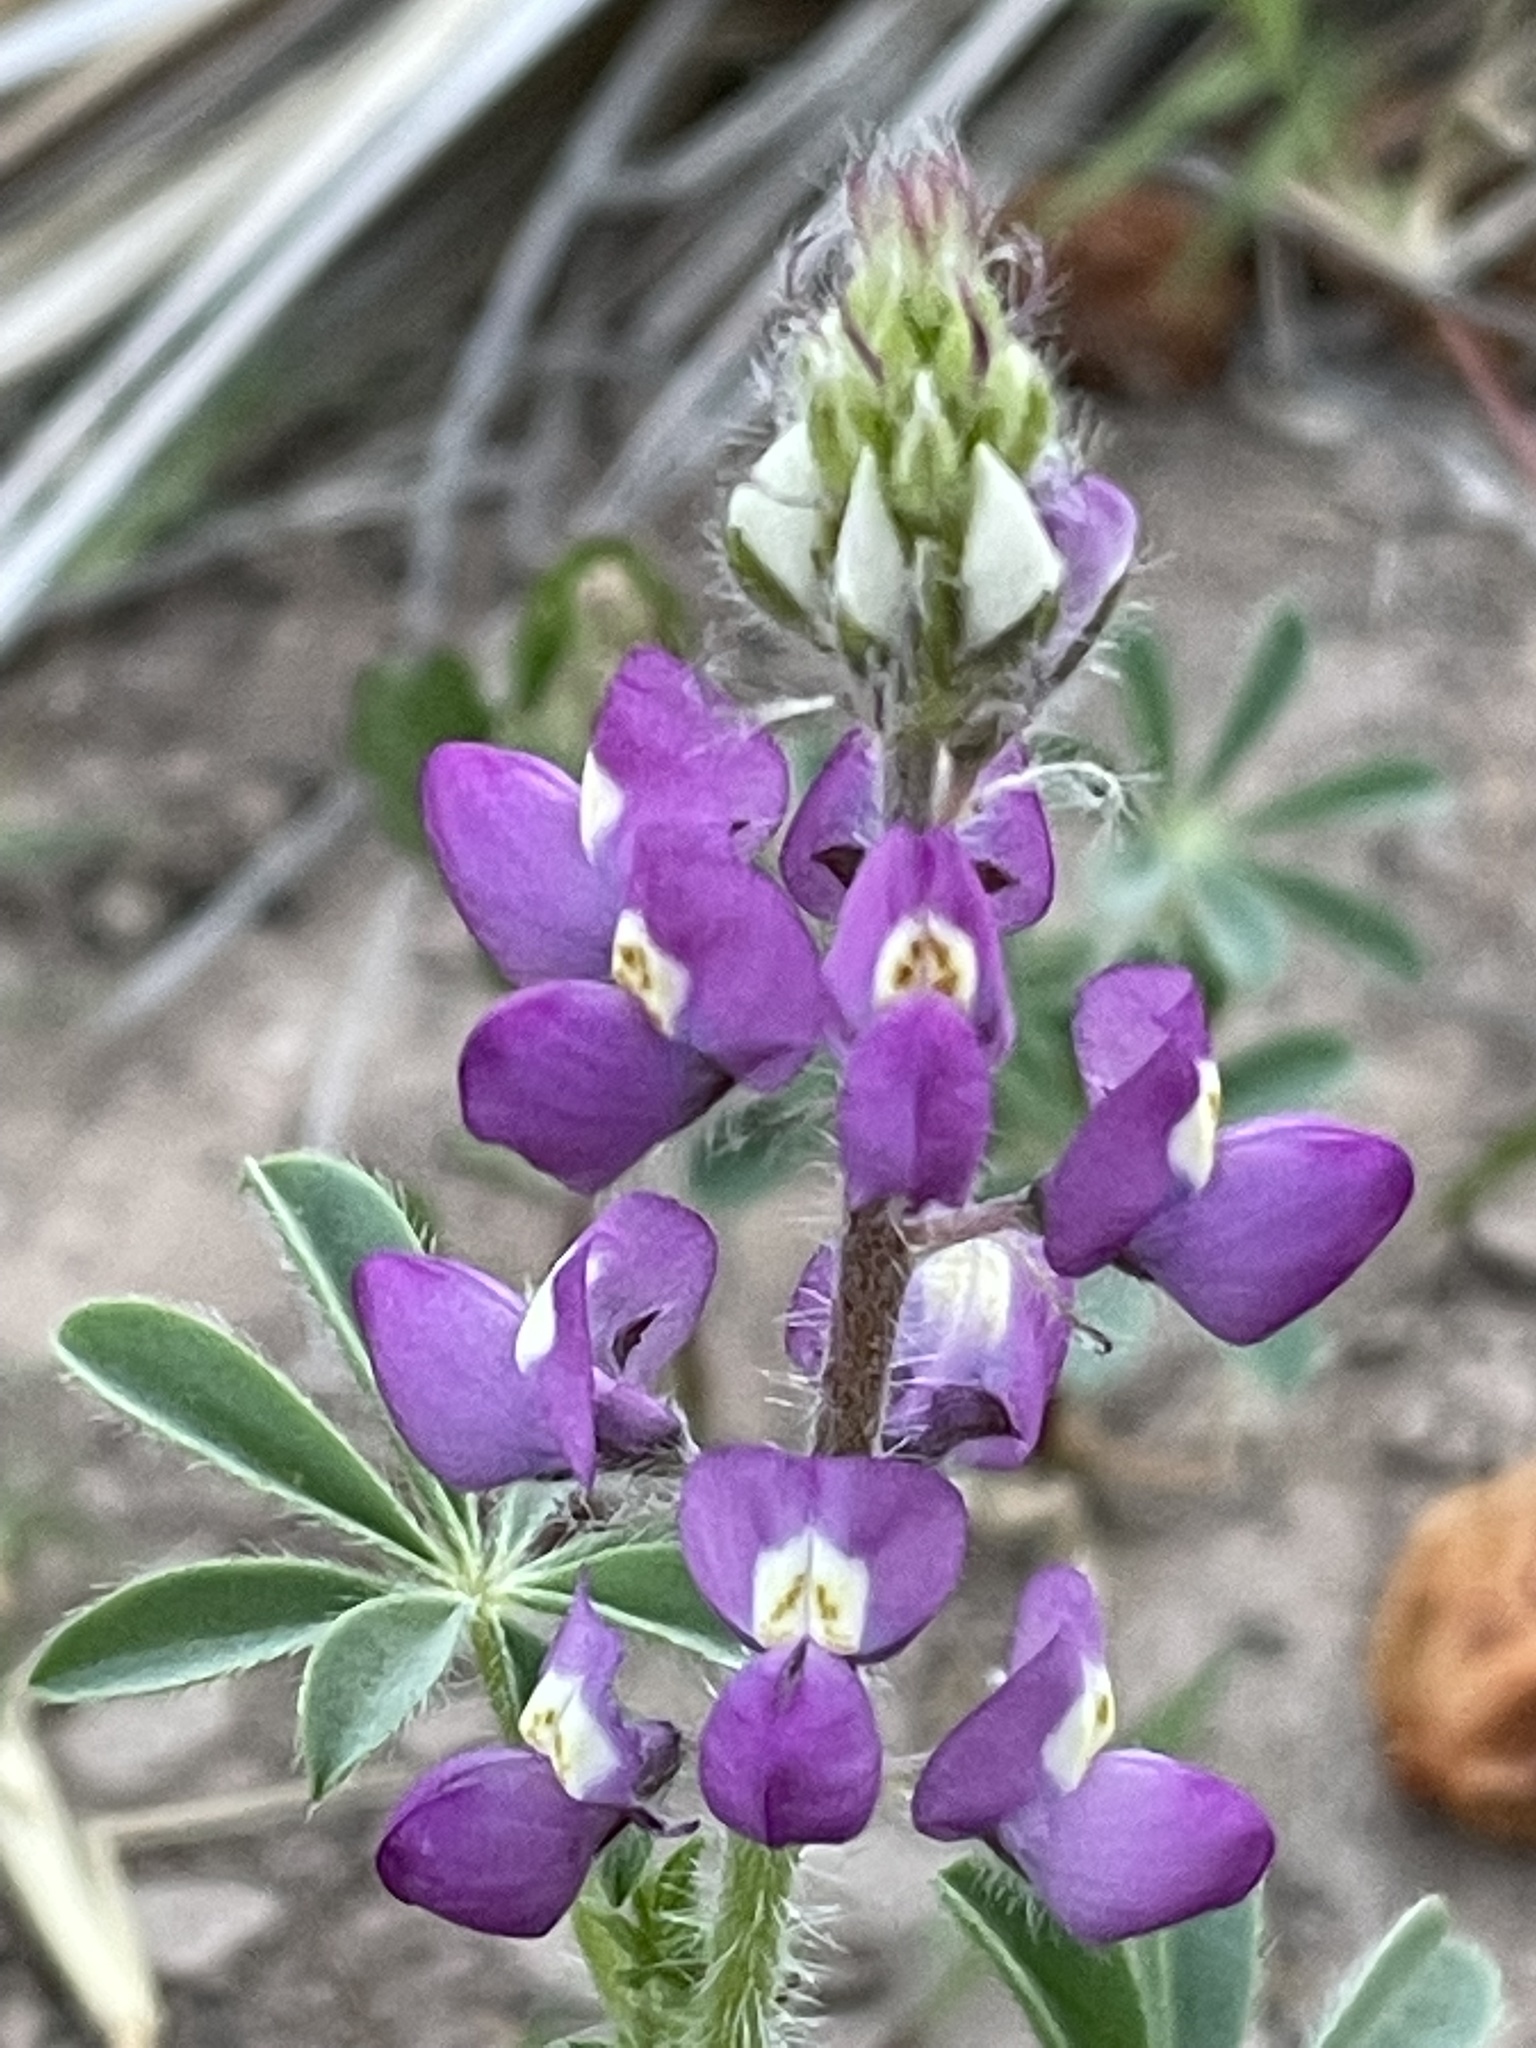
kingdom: Plantae
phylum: Tracheophyta
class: Magnoliopsida
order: Fabales
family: Fabaceae
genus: Lupinus
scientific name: Lupinus arizonicus
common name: Arizona lupine
